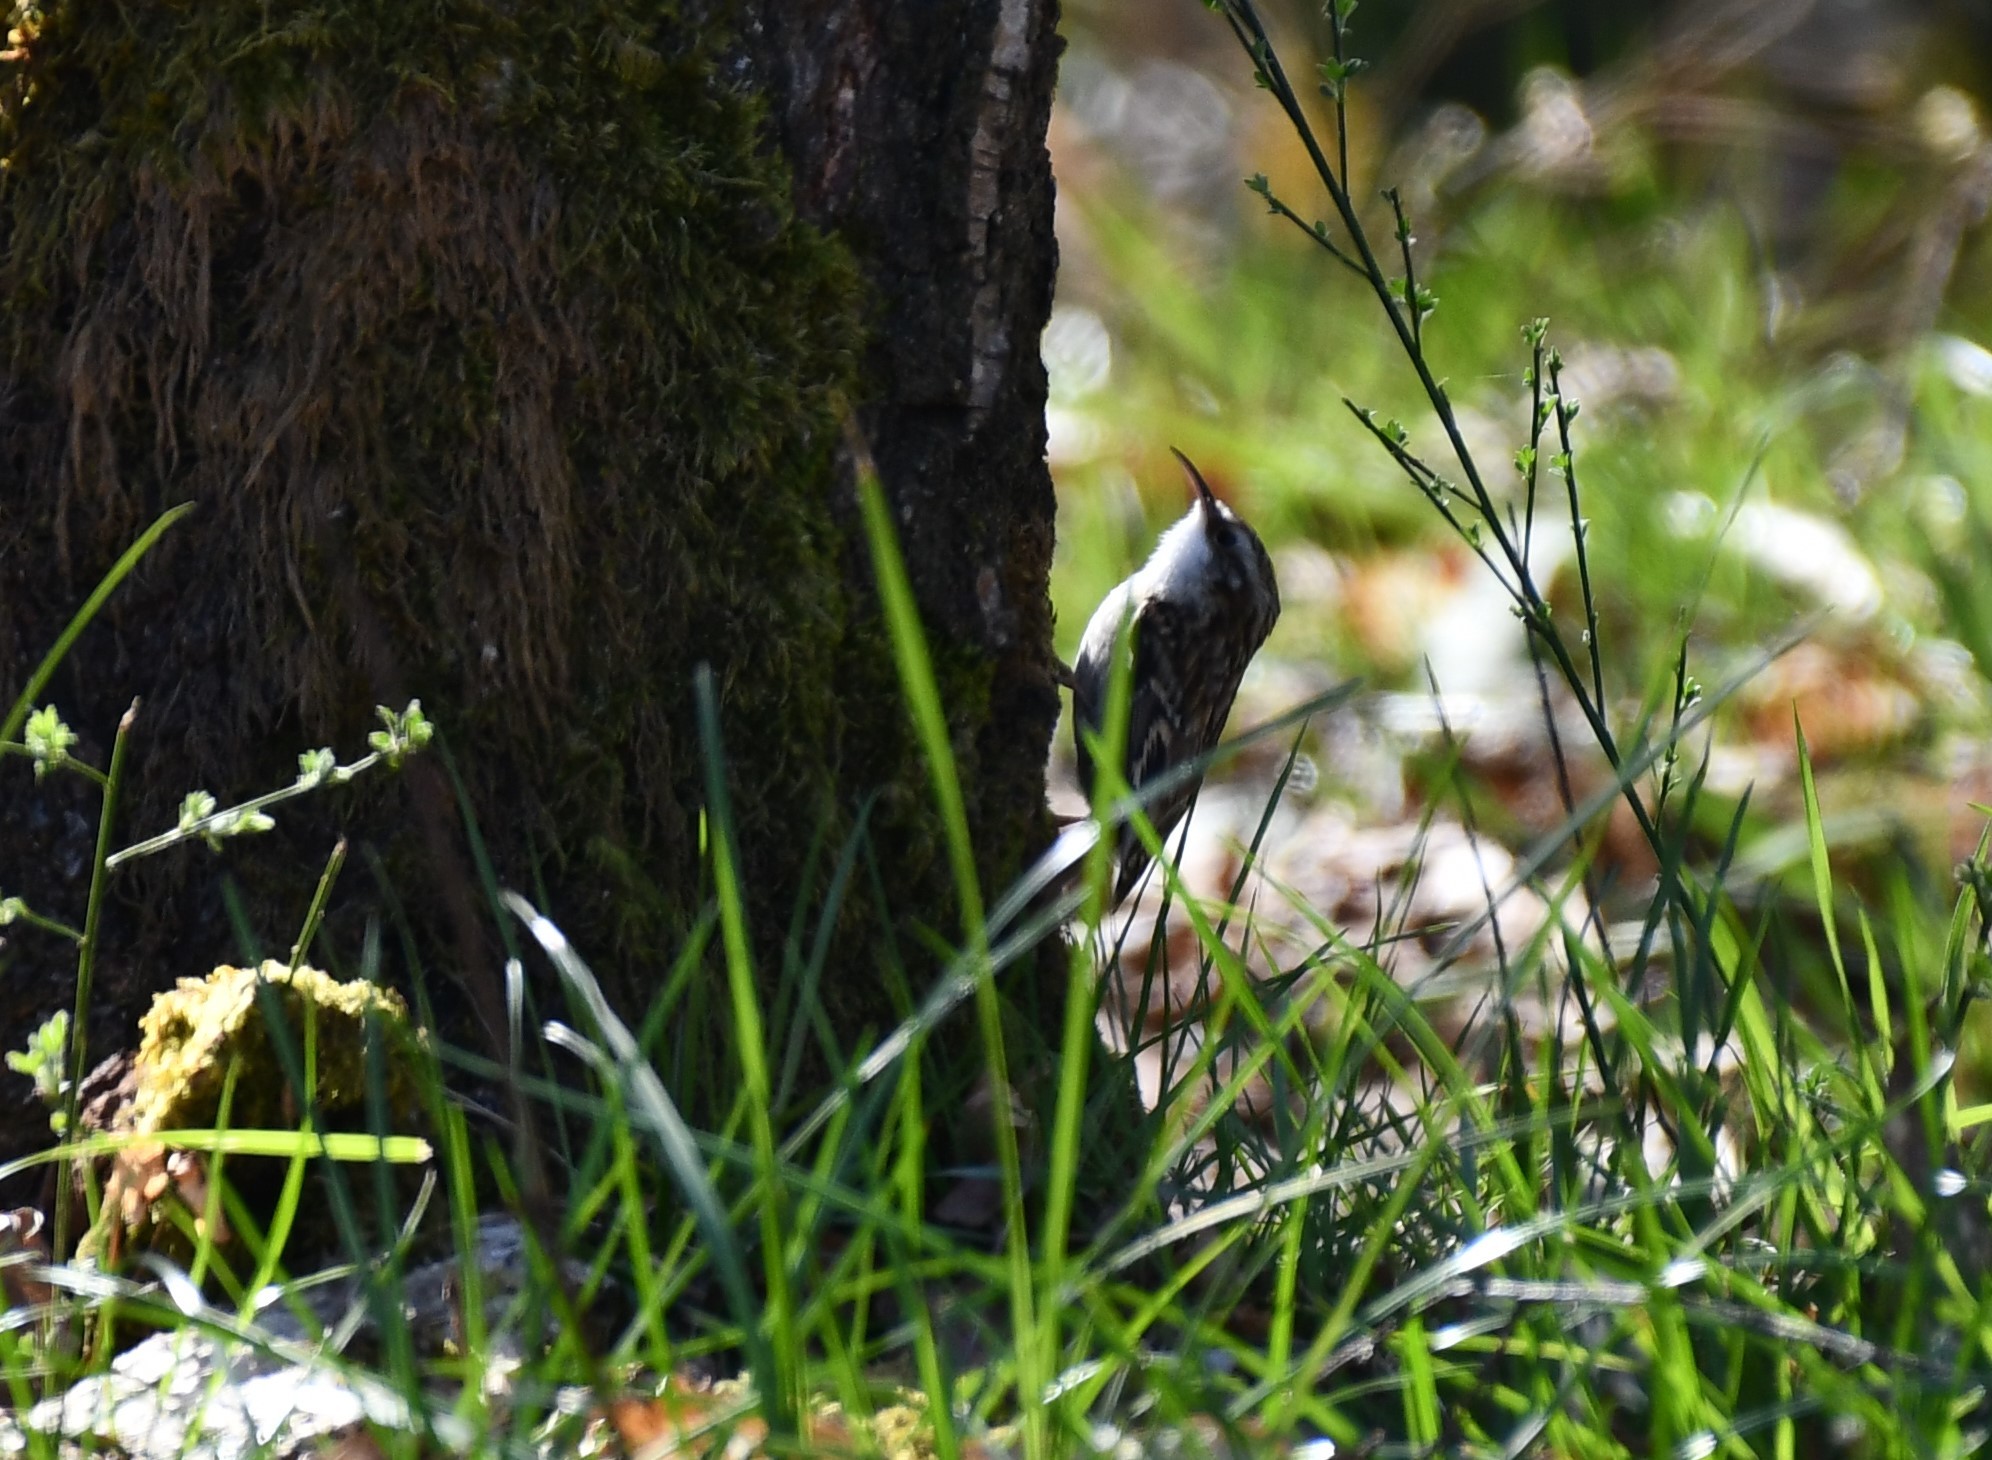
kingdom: Animalia
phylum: Chordata
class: Aves
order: Passeriformes
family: Certhiidae
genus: Certhia
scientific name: Certhia brachydactyla
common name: Short-toed treecreeper
